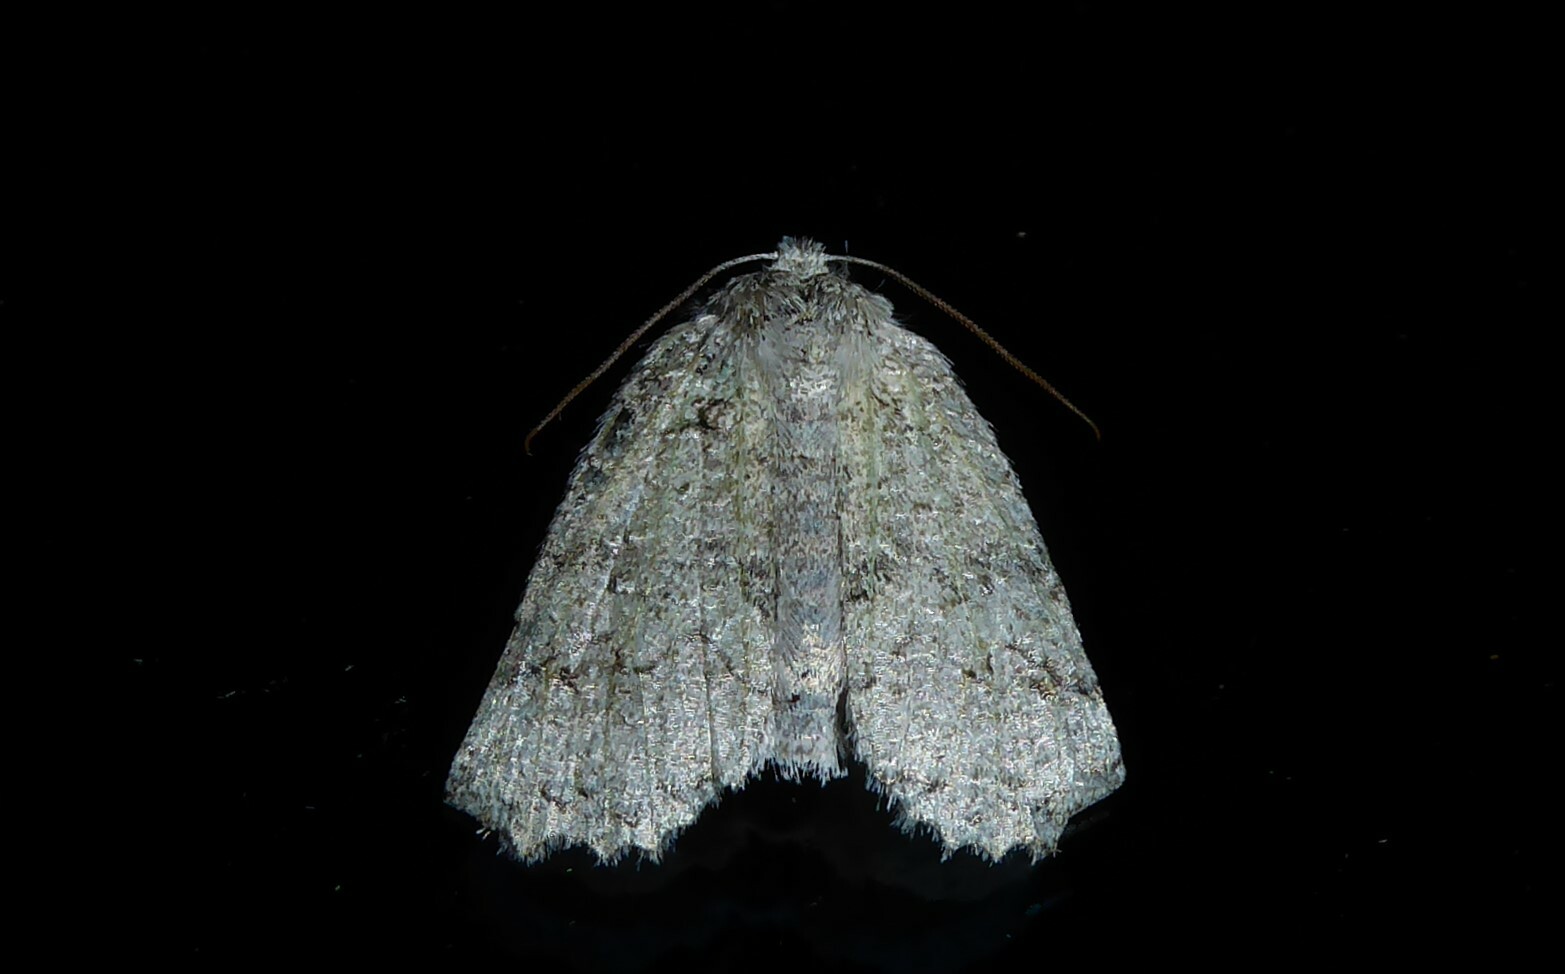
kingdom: Animalia
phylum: Arthropoda
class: Insecta
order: Lepidoptera
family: Geometridae
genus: Declana
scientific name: Declana floccosa
